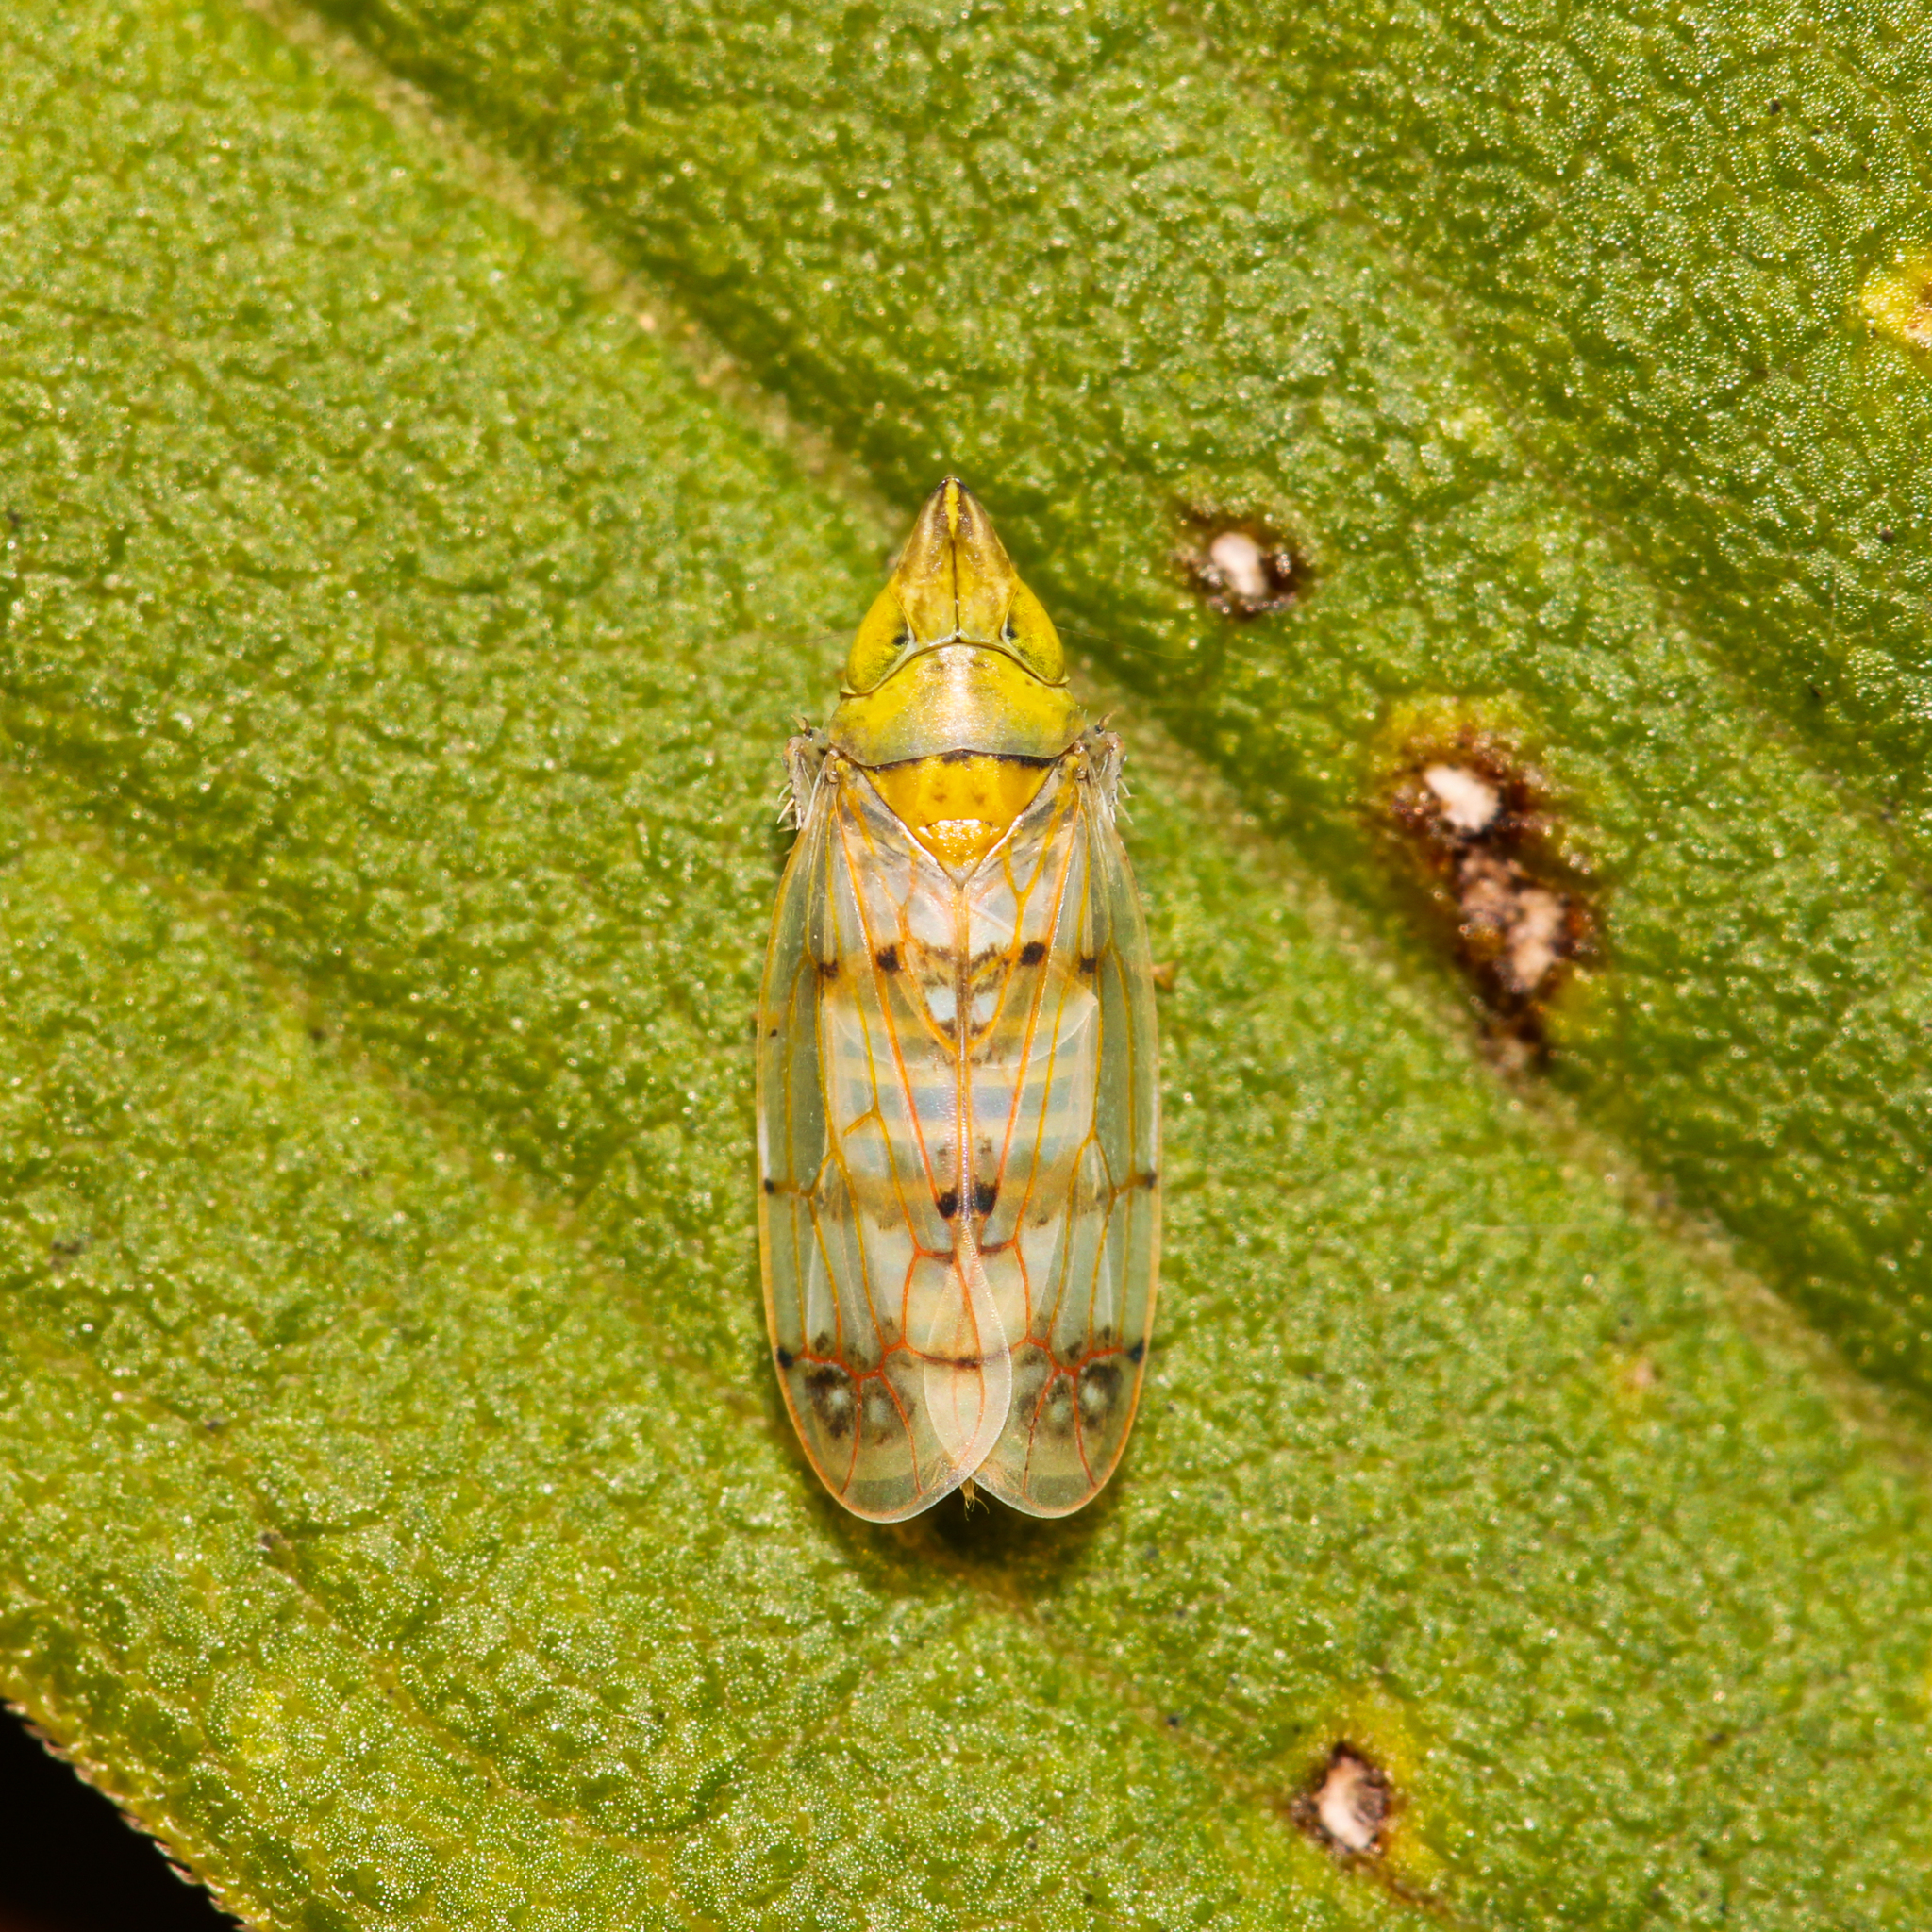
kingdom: Animalia
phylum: Arthropoda
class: Insecta
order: Hemiptera
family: Cicadellidae
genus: Japananus
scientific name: Japananus hyalinus
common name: The japanese maple leafhopper
